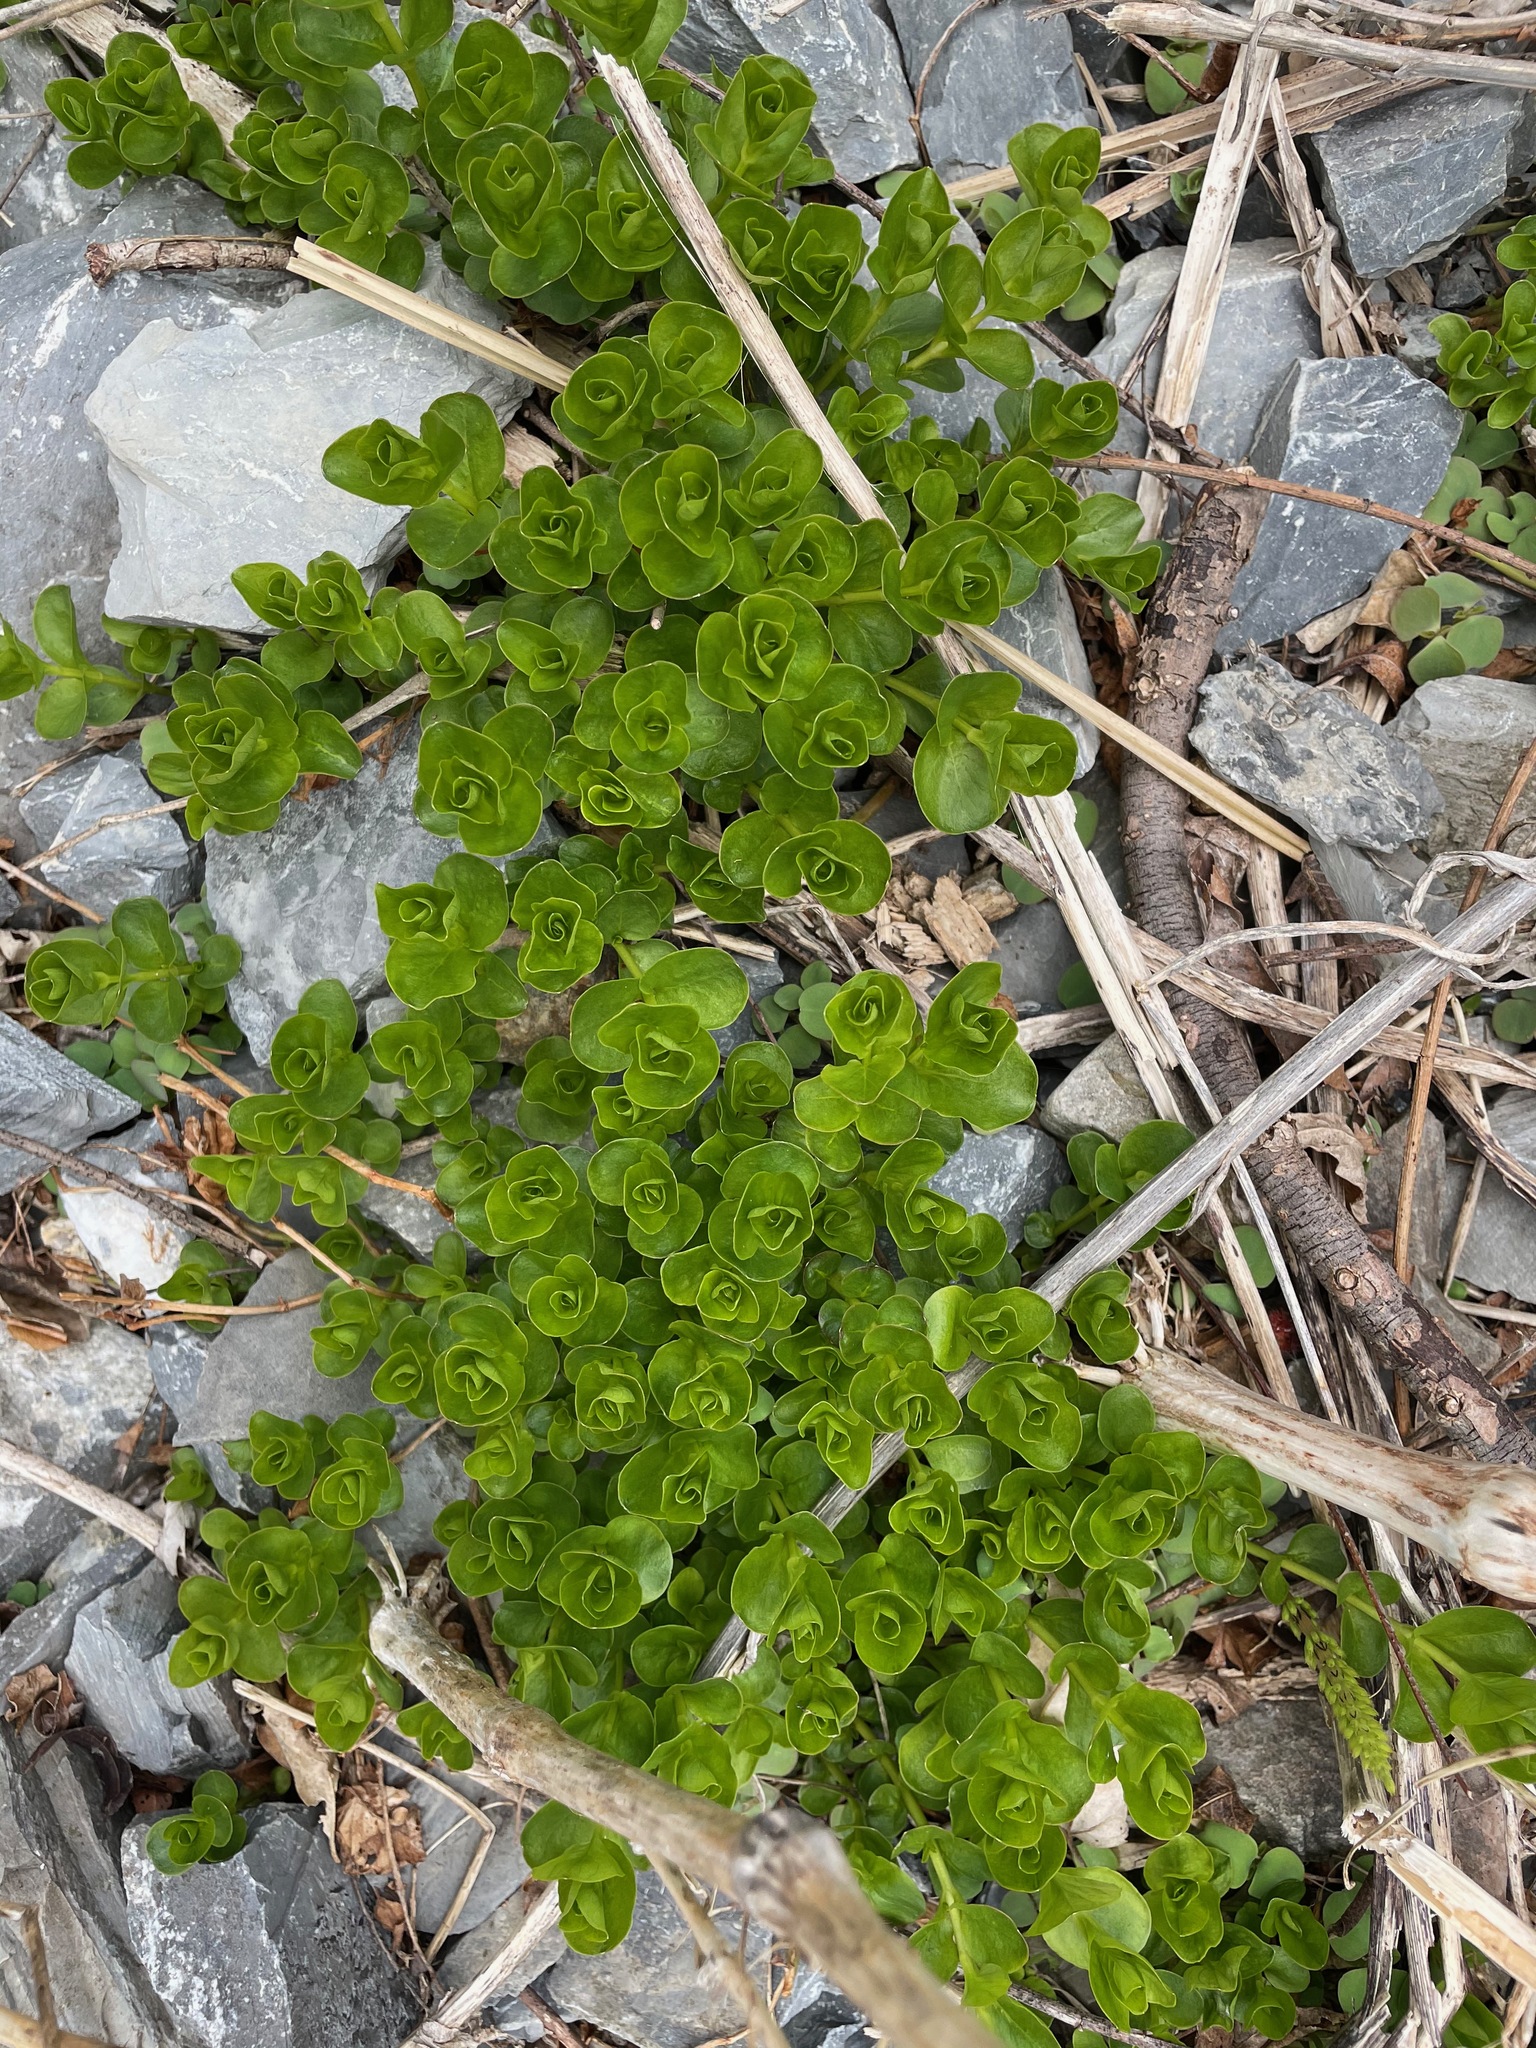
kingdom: Plantae
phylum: Tracheophyta
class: Magnoliopsida
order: Ericales
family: Primulaceae
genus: Lysimachia
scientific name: Lysimachia nummularia
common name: Moneywort
